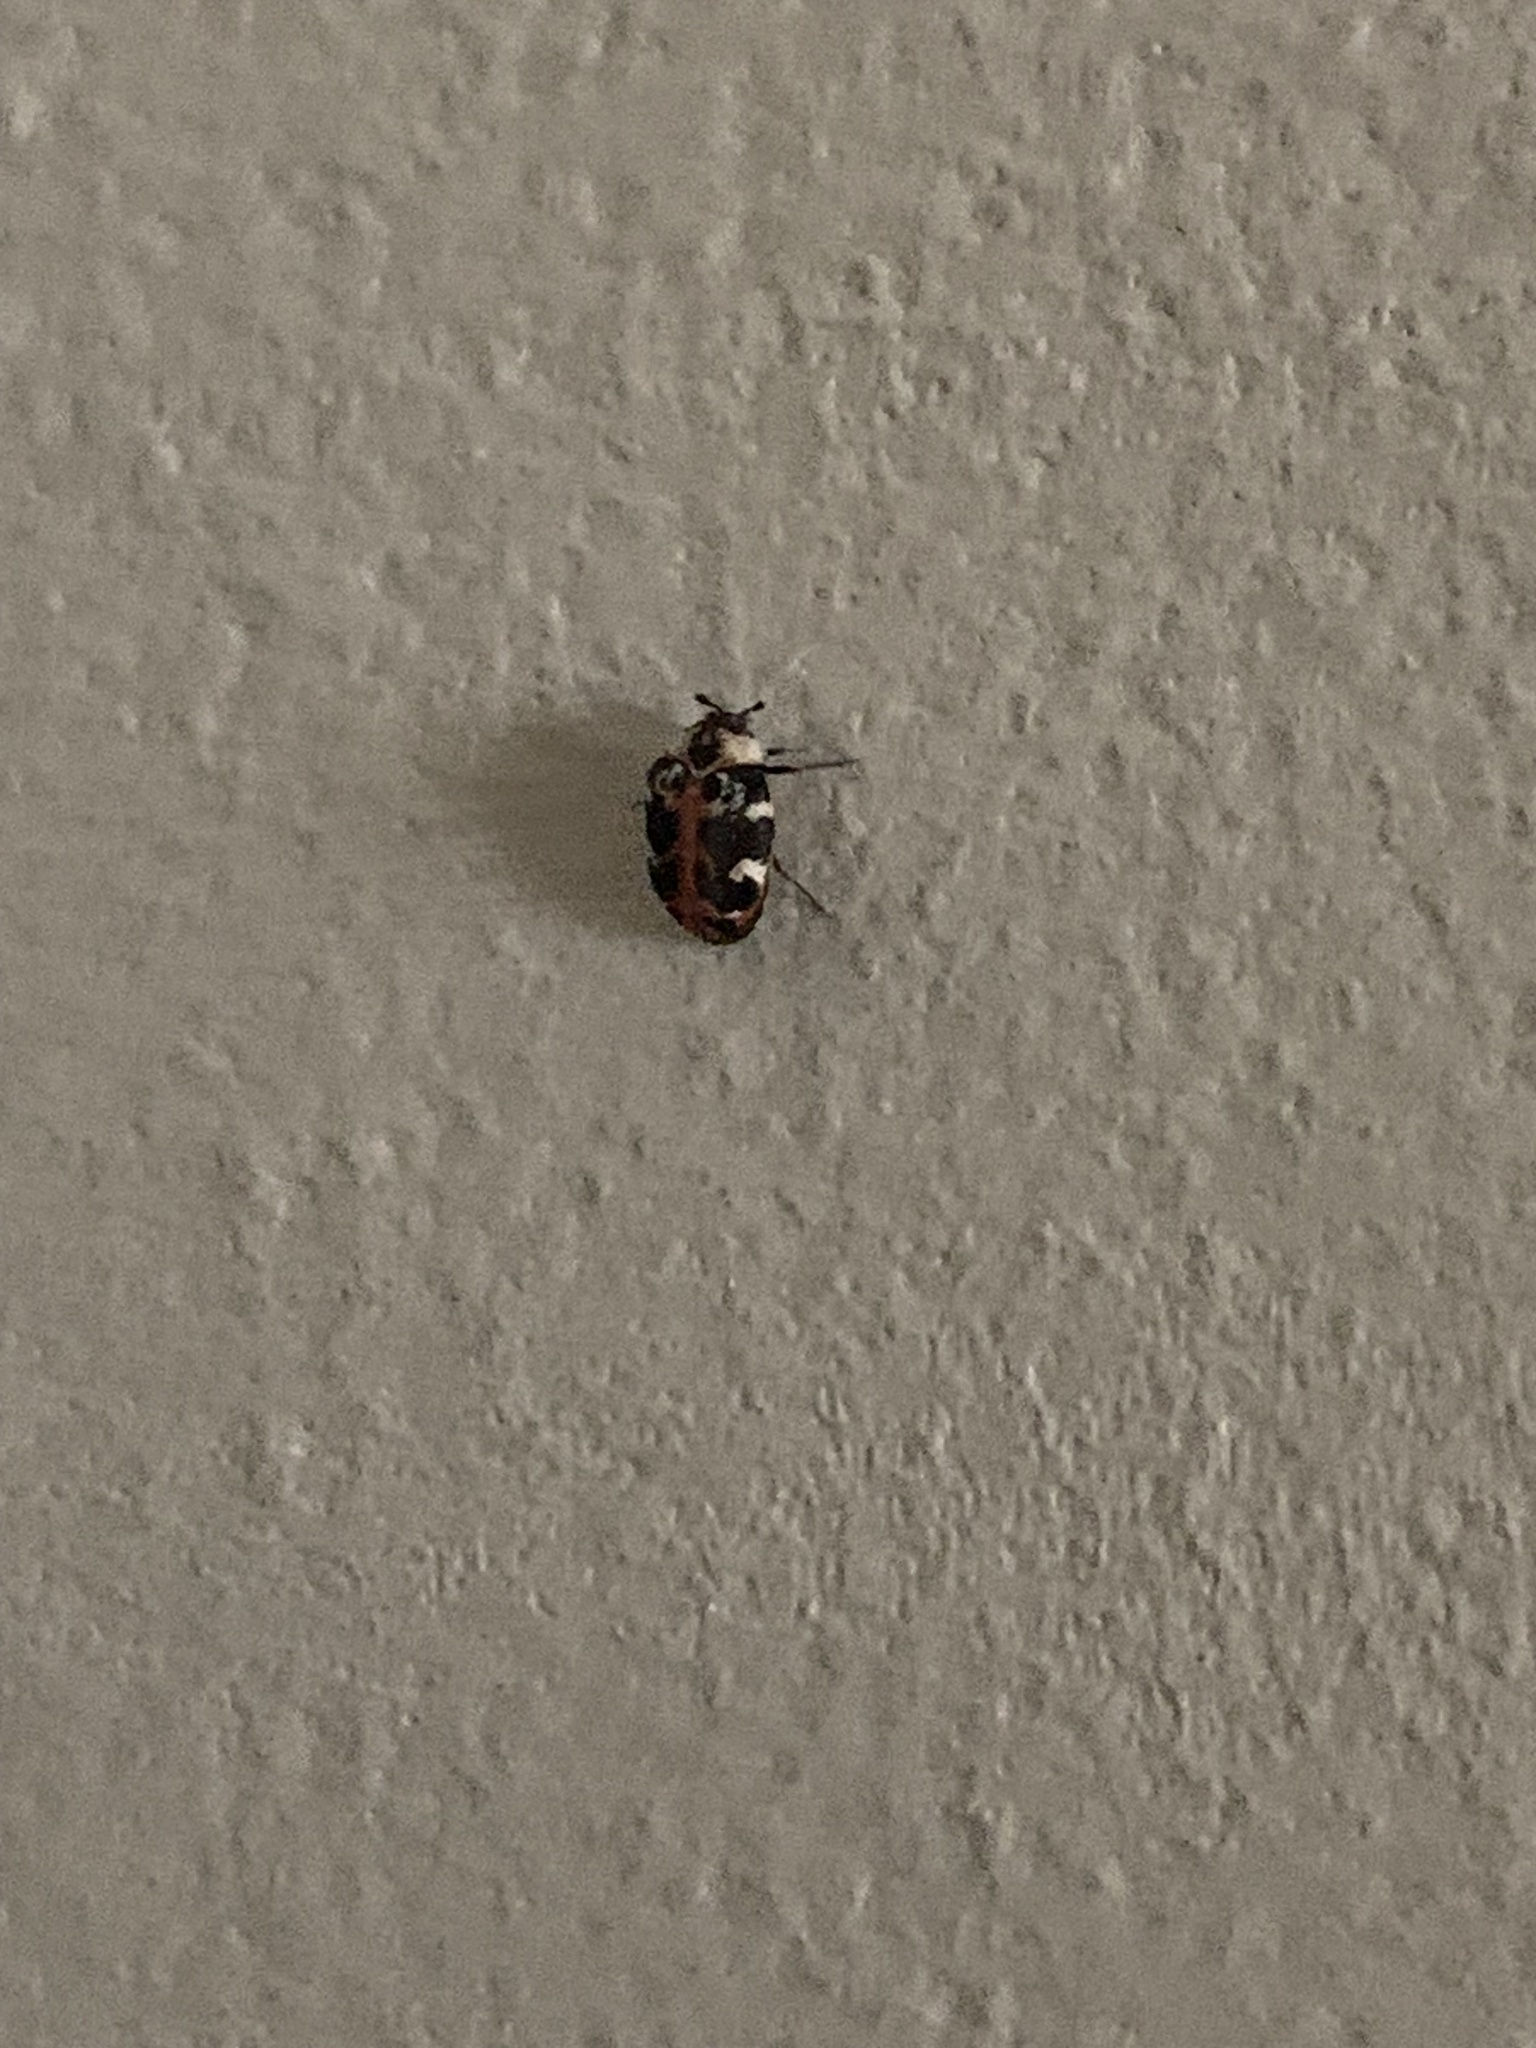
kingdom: Animalia
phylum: Arthropoda
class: Insecta
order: Coleoptera
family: Dermestidae
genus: Anthrenus
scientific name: Anthrenus scrophulariae
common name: Buffalo carpet beetle
